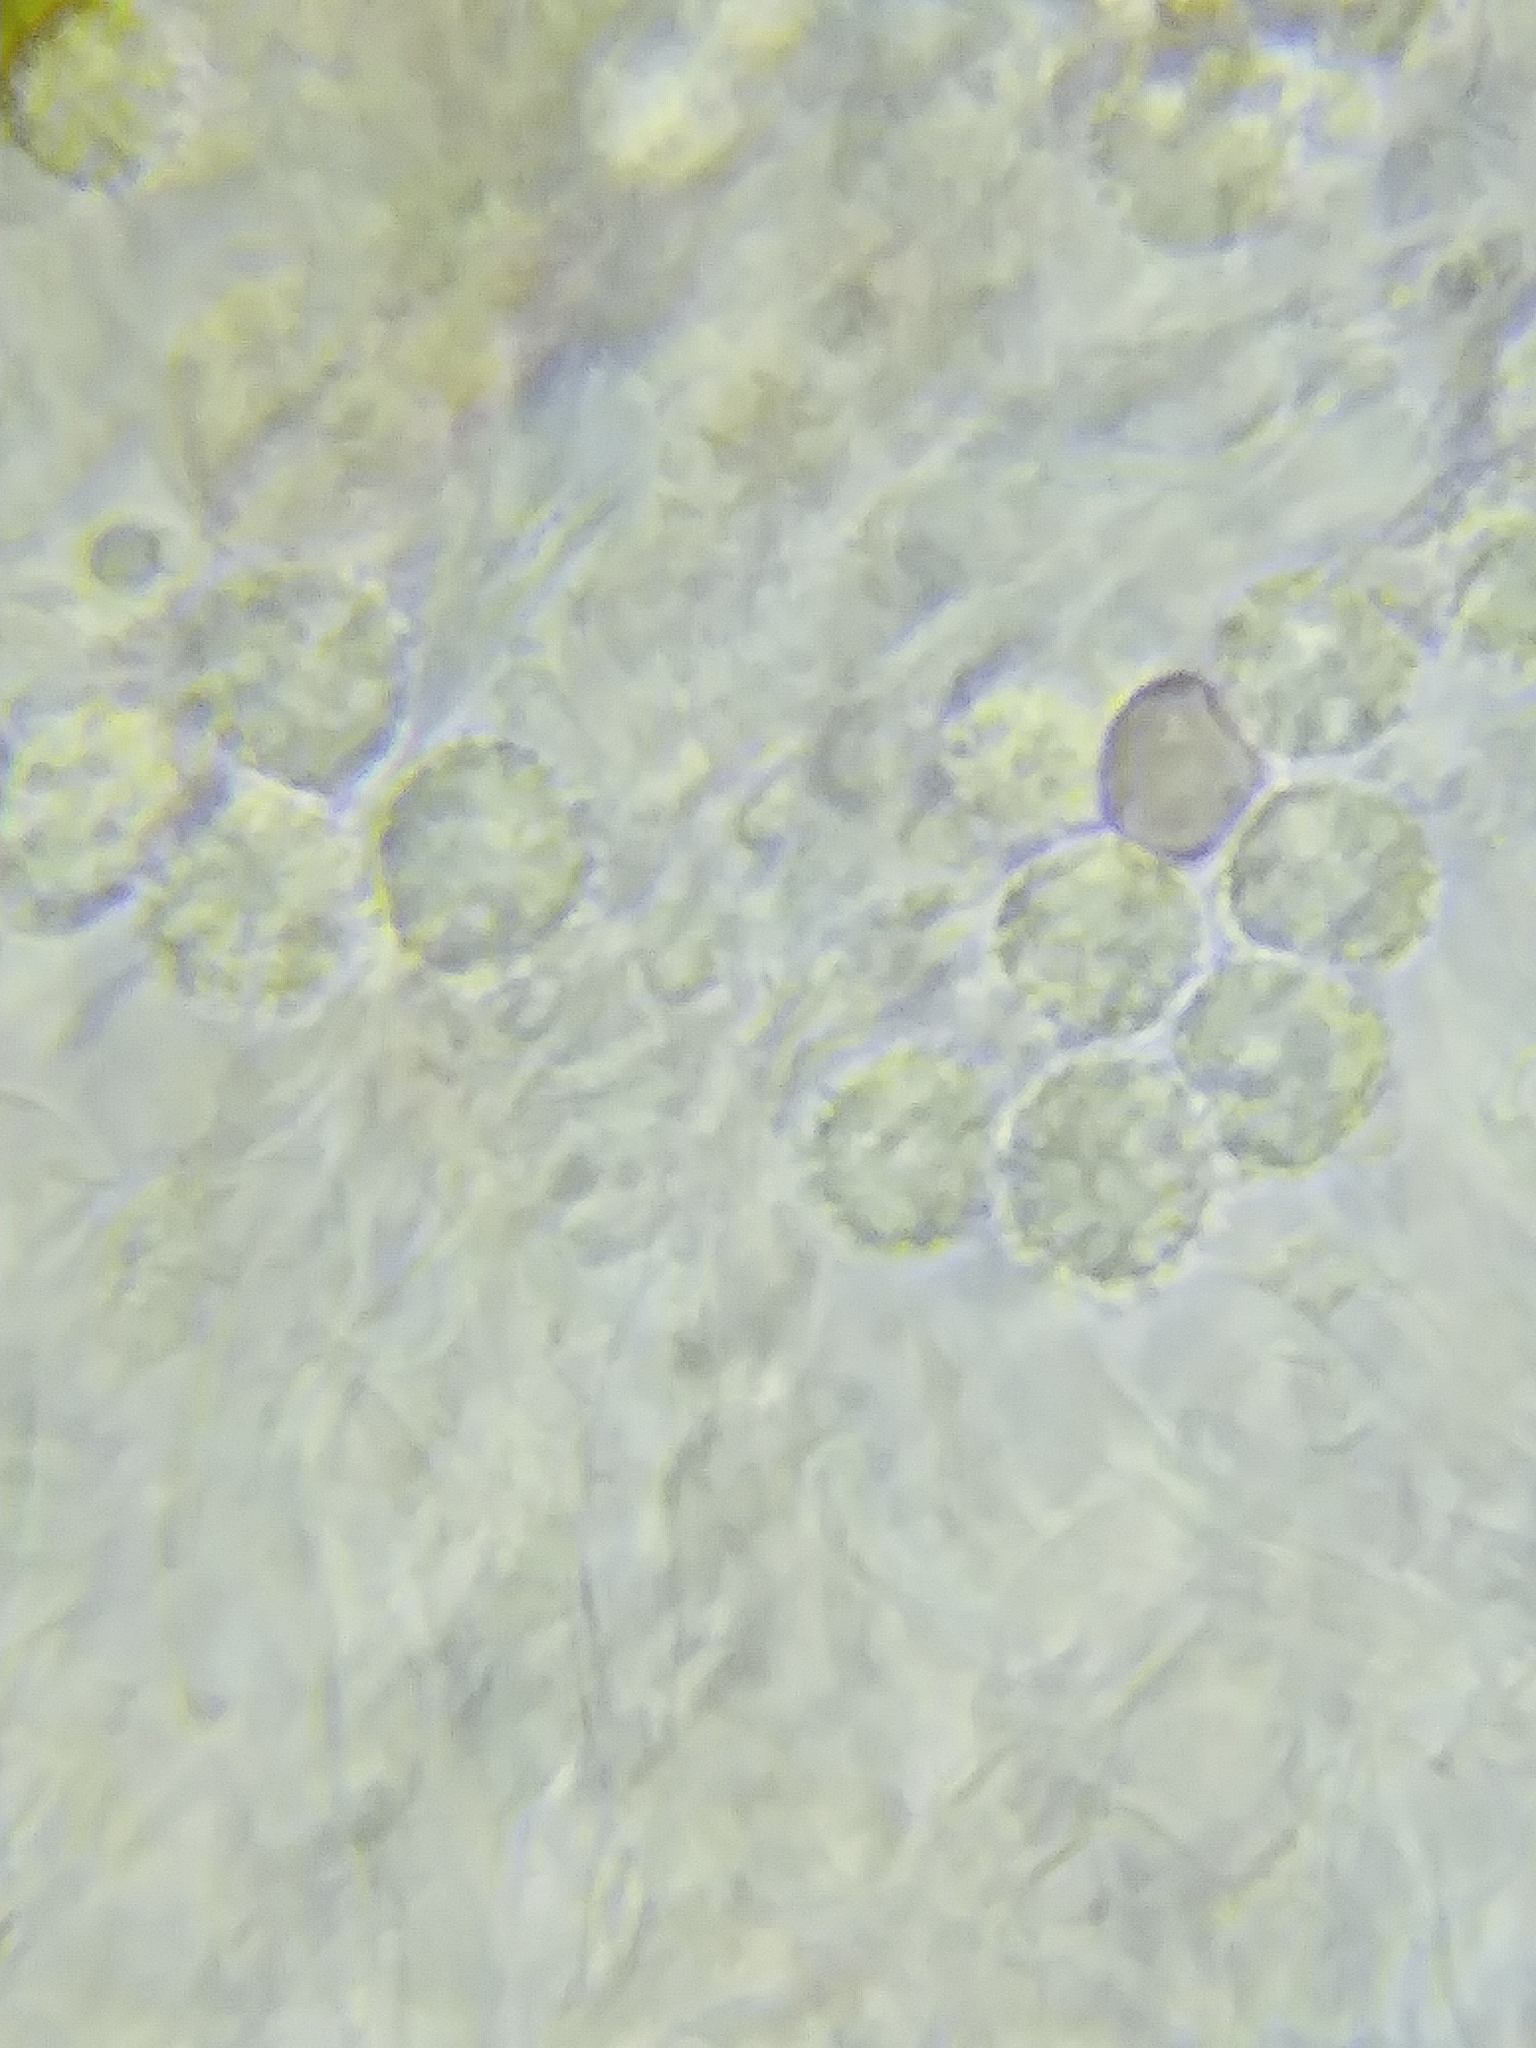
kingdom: Fungi
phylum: Basidiomycota
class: Agaricomycetes
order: Agaricales
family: Hydnangiaceae
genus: Laccaria
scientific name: Laccaria amethystina
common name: Amethyst deceiver
